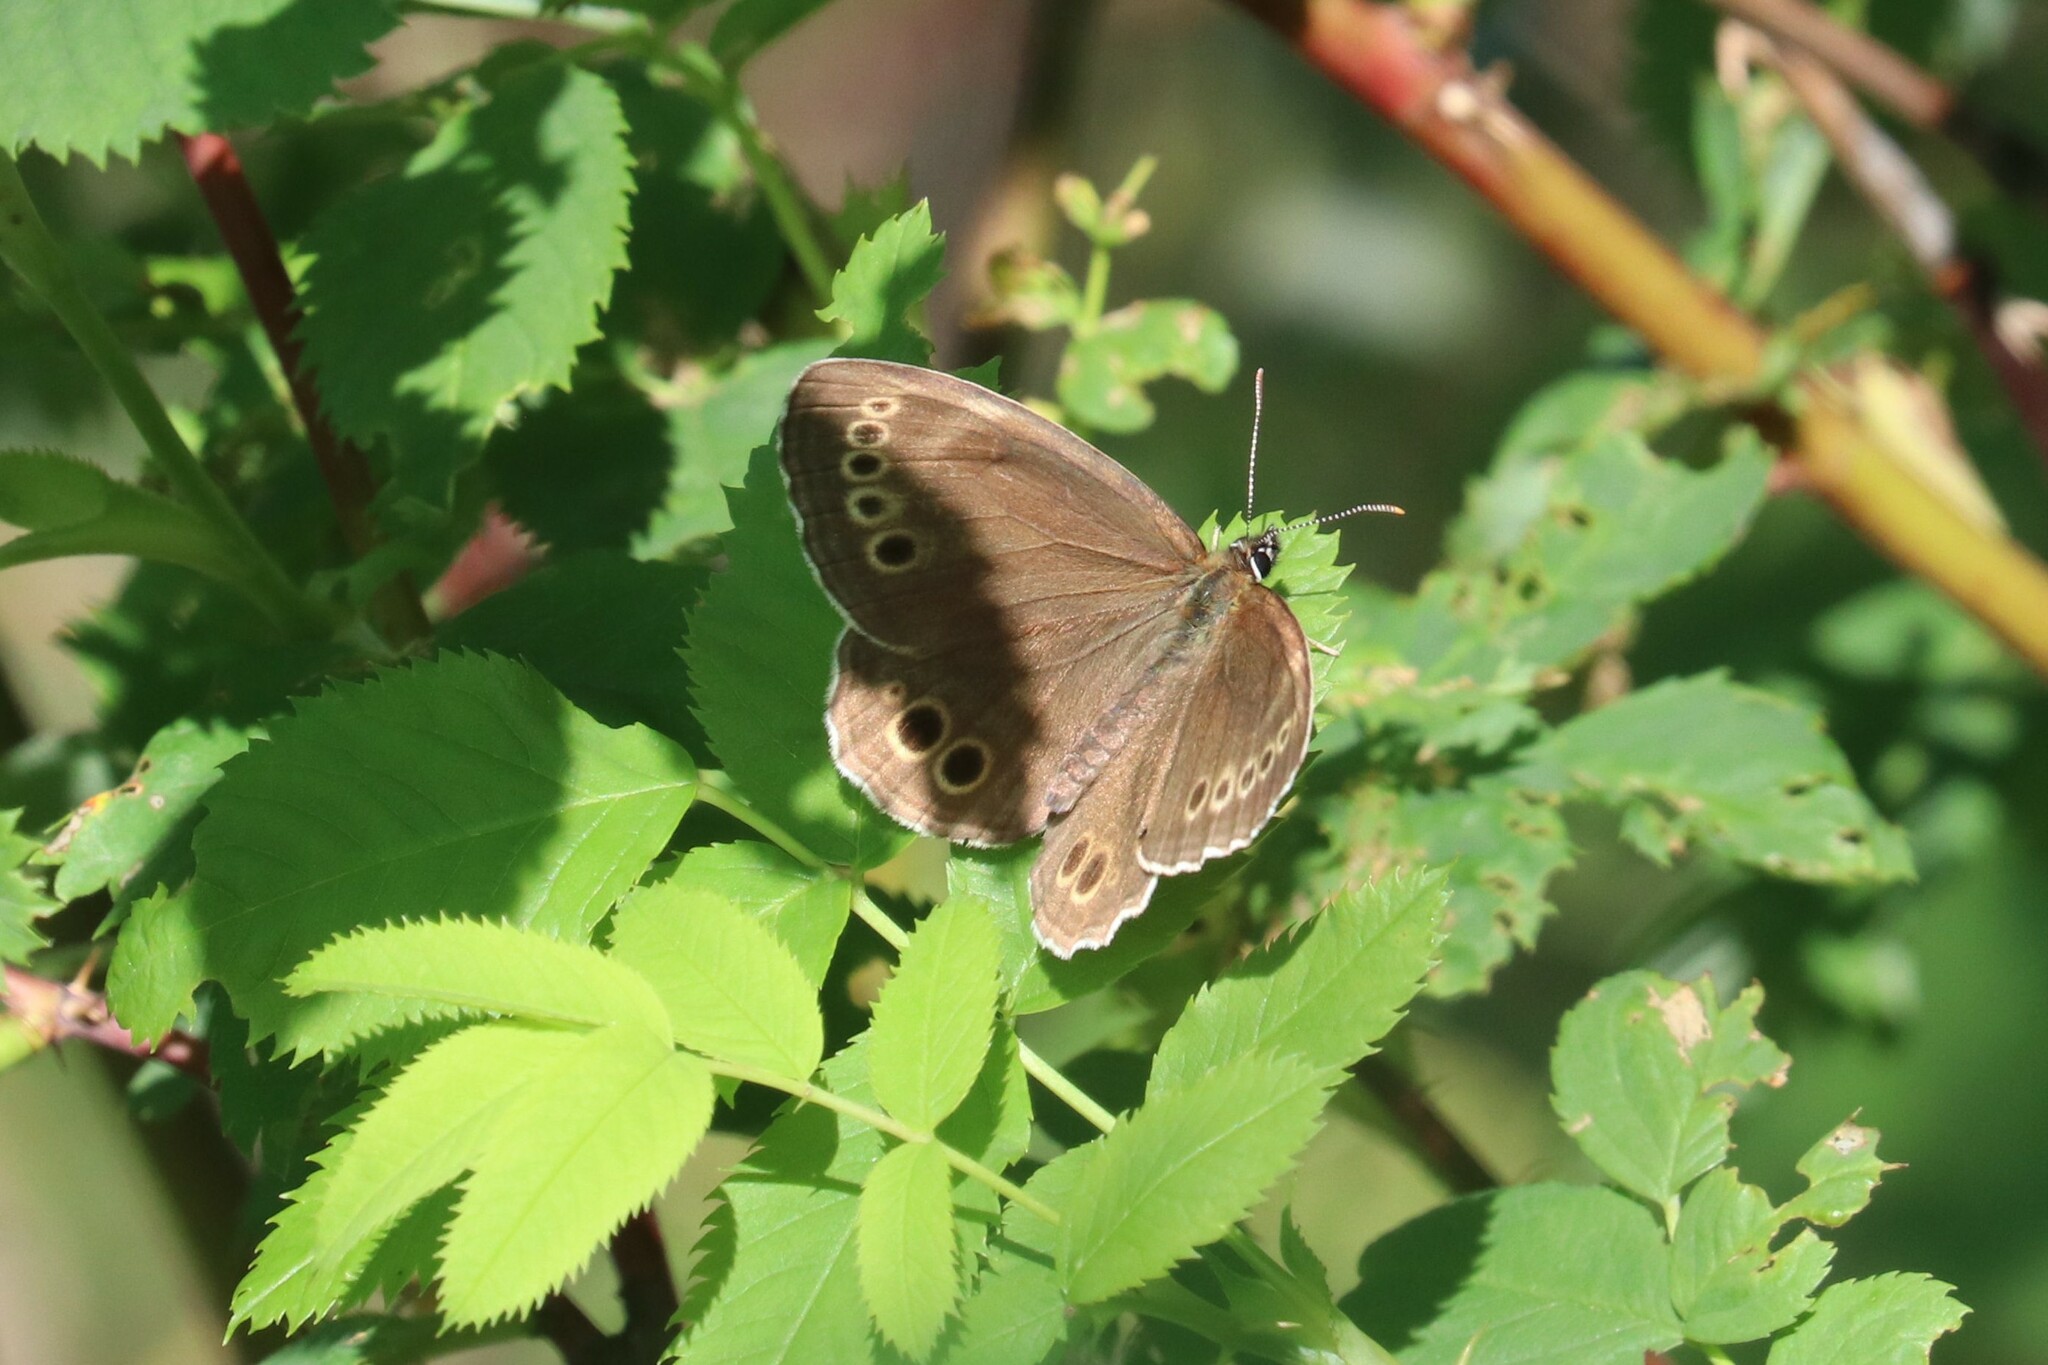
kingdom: Animalia
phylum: Arthropoda
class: Insecta
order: Lepidoptera
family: Nymphalidae
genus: Pararge
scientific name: Pararge Lopinga achine
